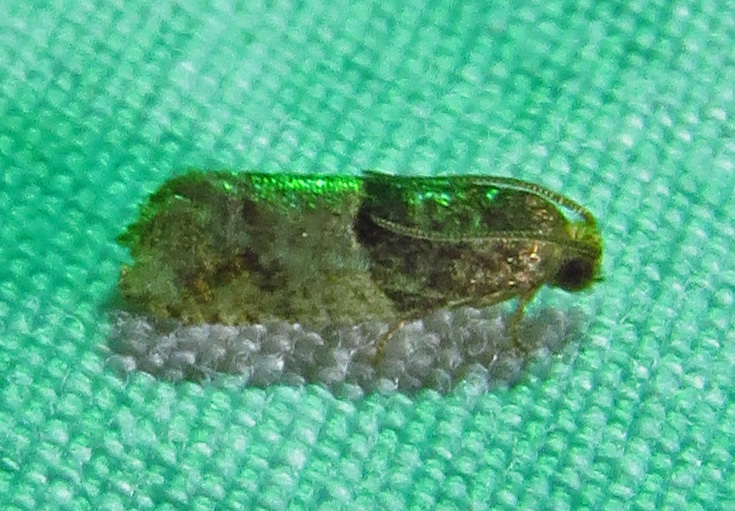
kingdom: Animalia
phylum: Arthropoda
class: Insecta
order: Lepidoptera
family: Tortricidae
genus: Larisa
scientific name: Larisa subsolana
